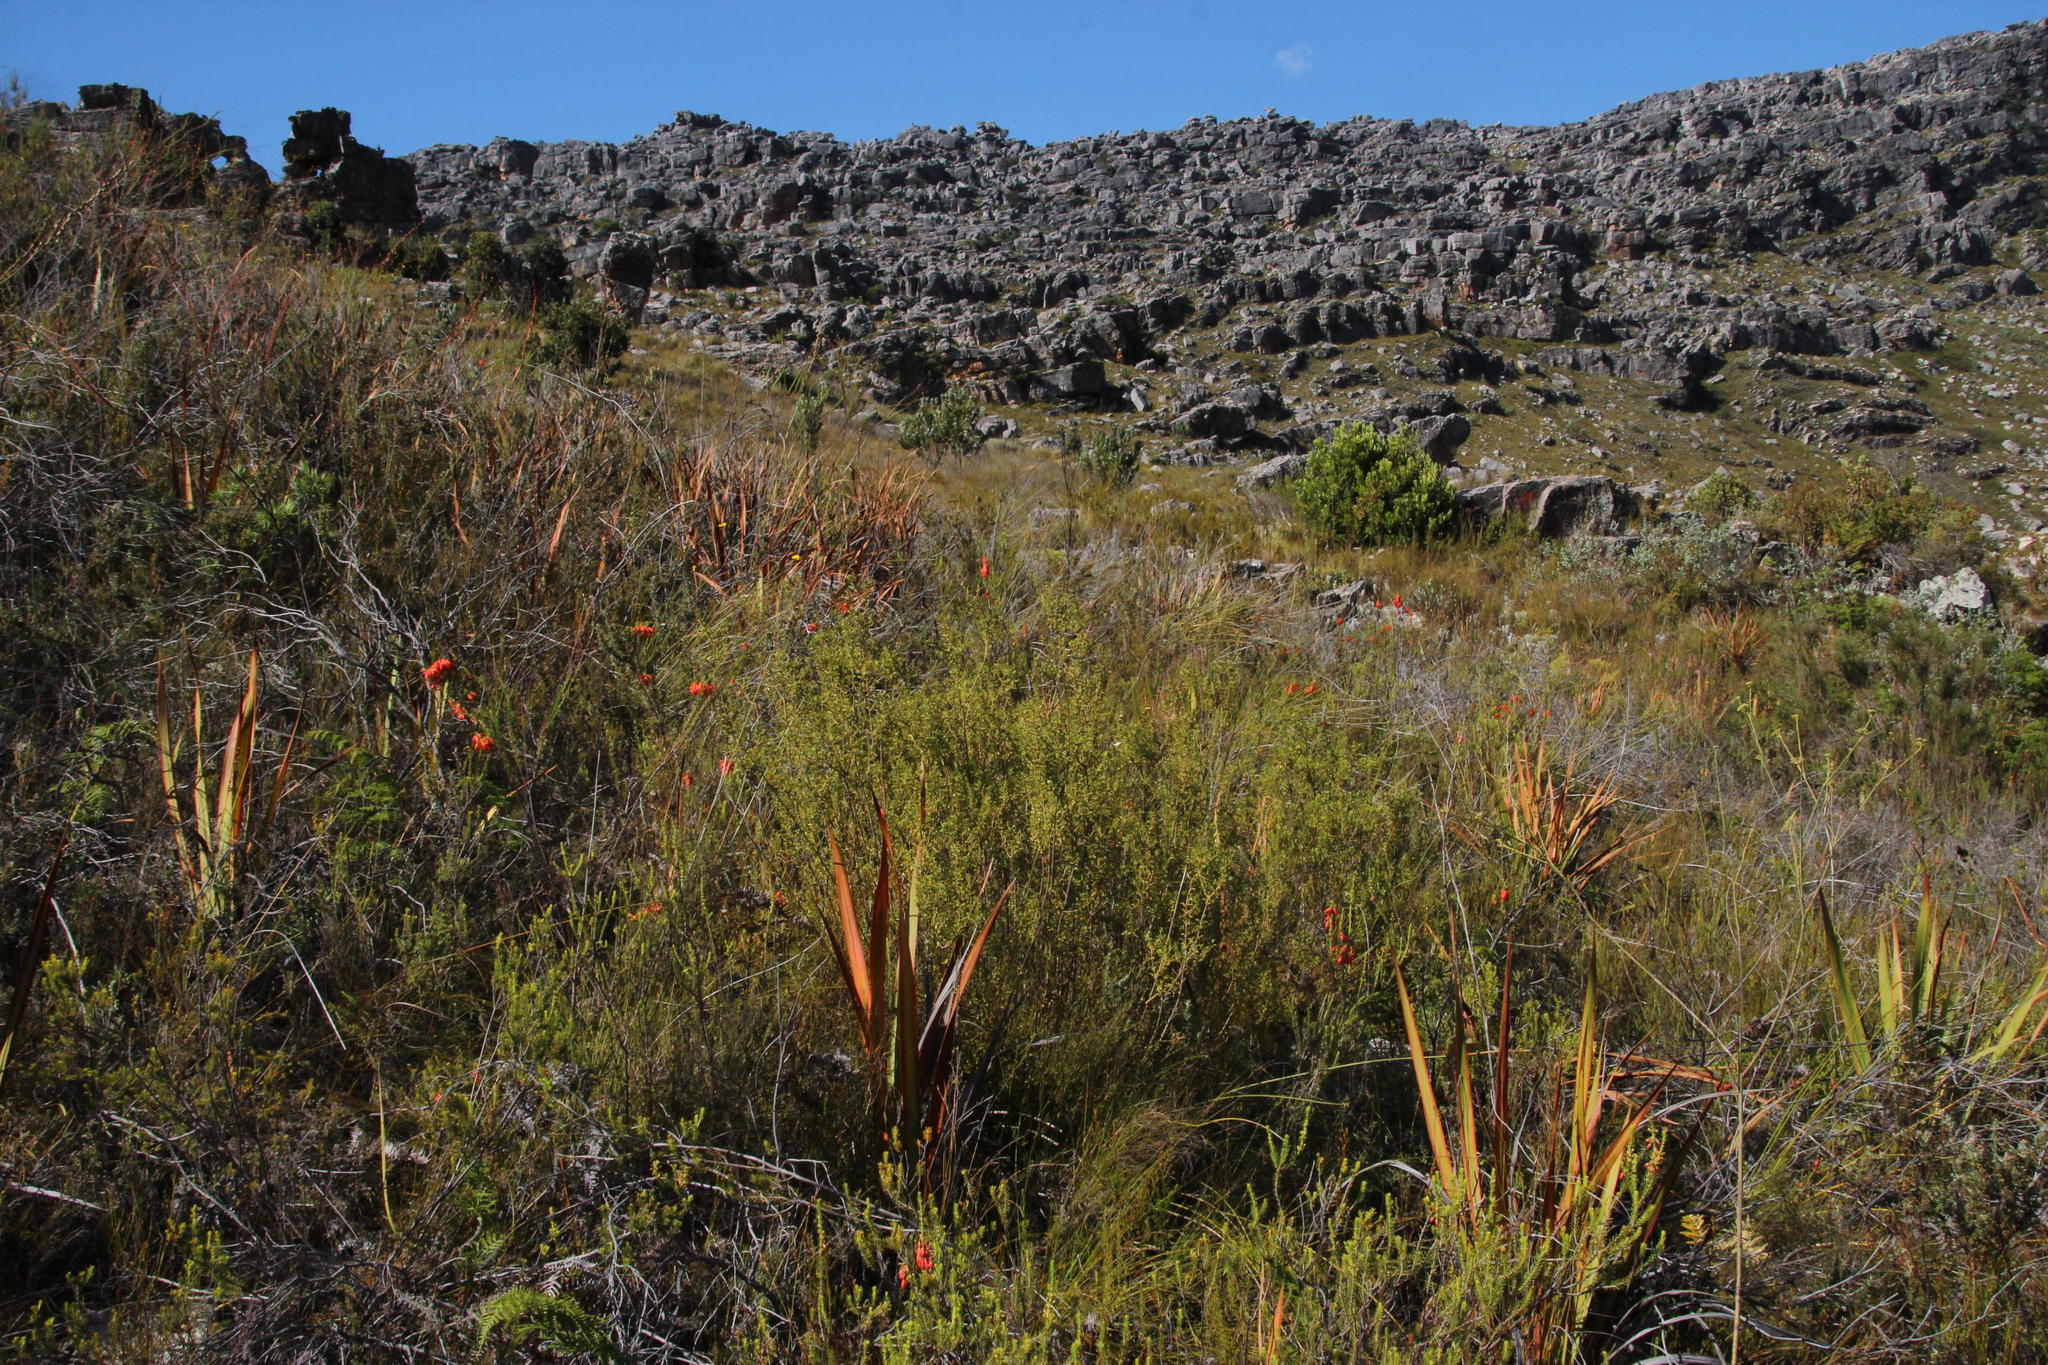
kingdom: Plantae
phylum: Tracheophyta
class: Magnoliopsida
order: Sapindales
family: Rutaceae
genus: Agathosma
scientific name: Agathosma betulina
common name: Mountain buchu
